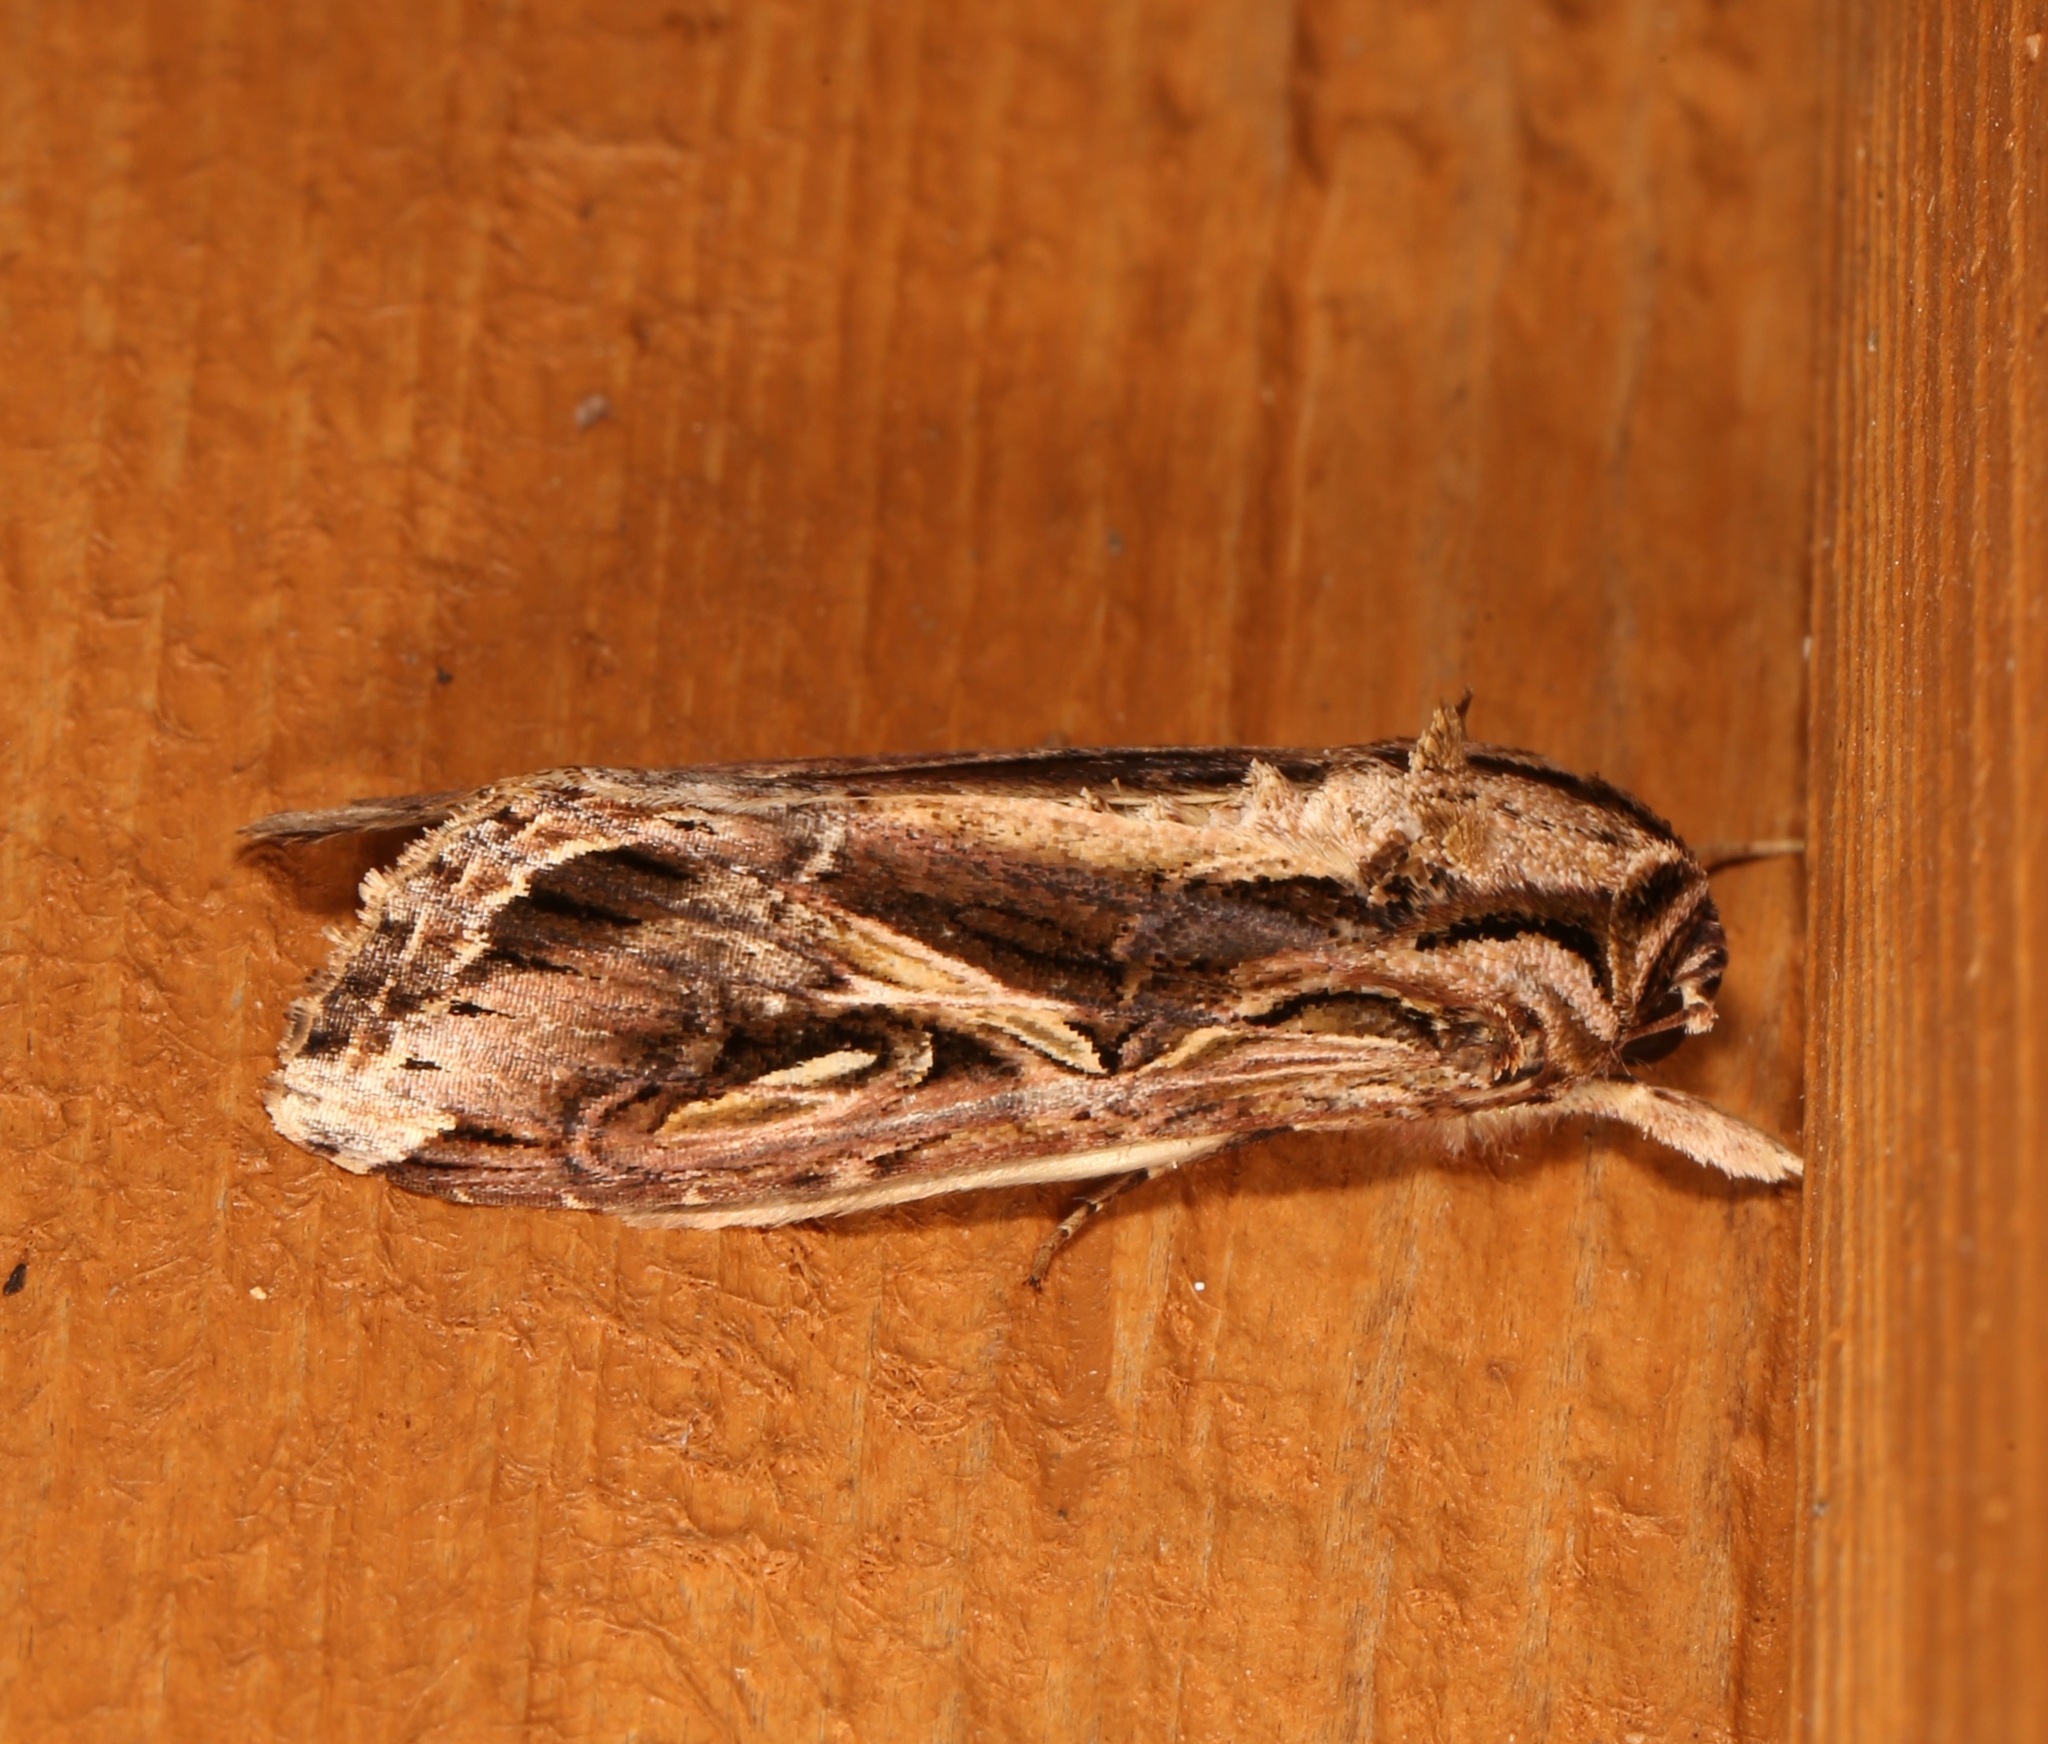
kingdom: Animalia
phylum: Arthropoda
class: Insecta
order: Lepidoptera
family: Noctuidae
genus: Spodoptera
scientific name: Spodoptera dolichos
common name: Sweetpotato armyworm
